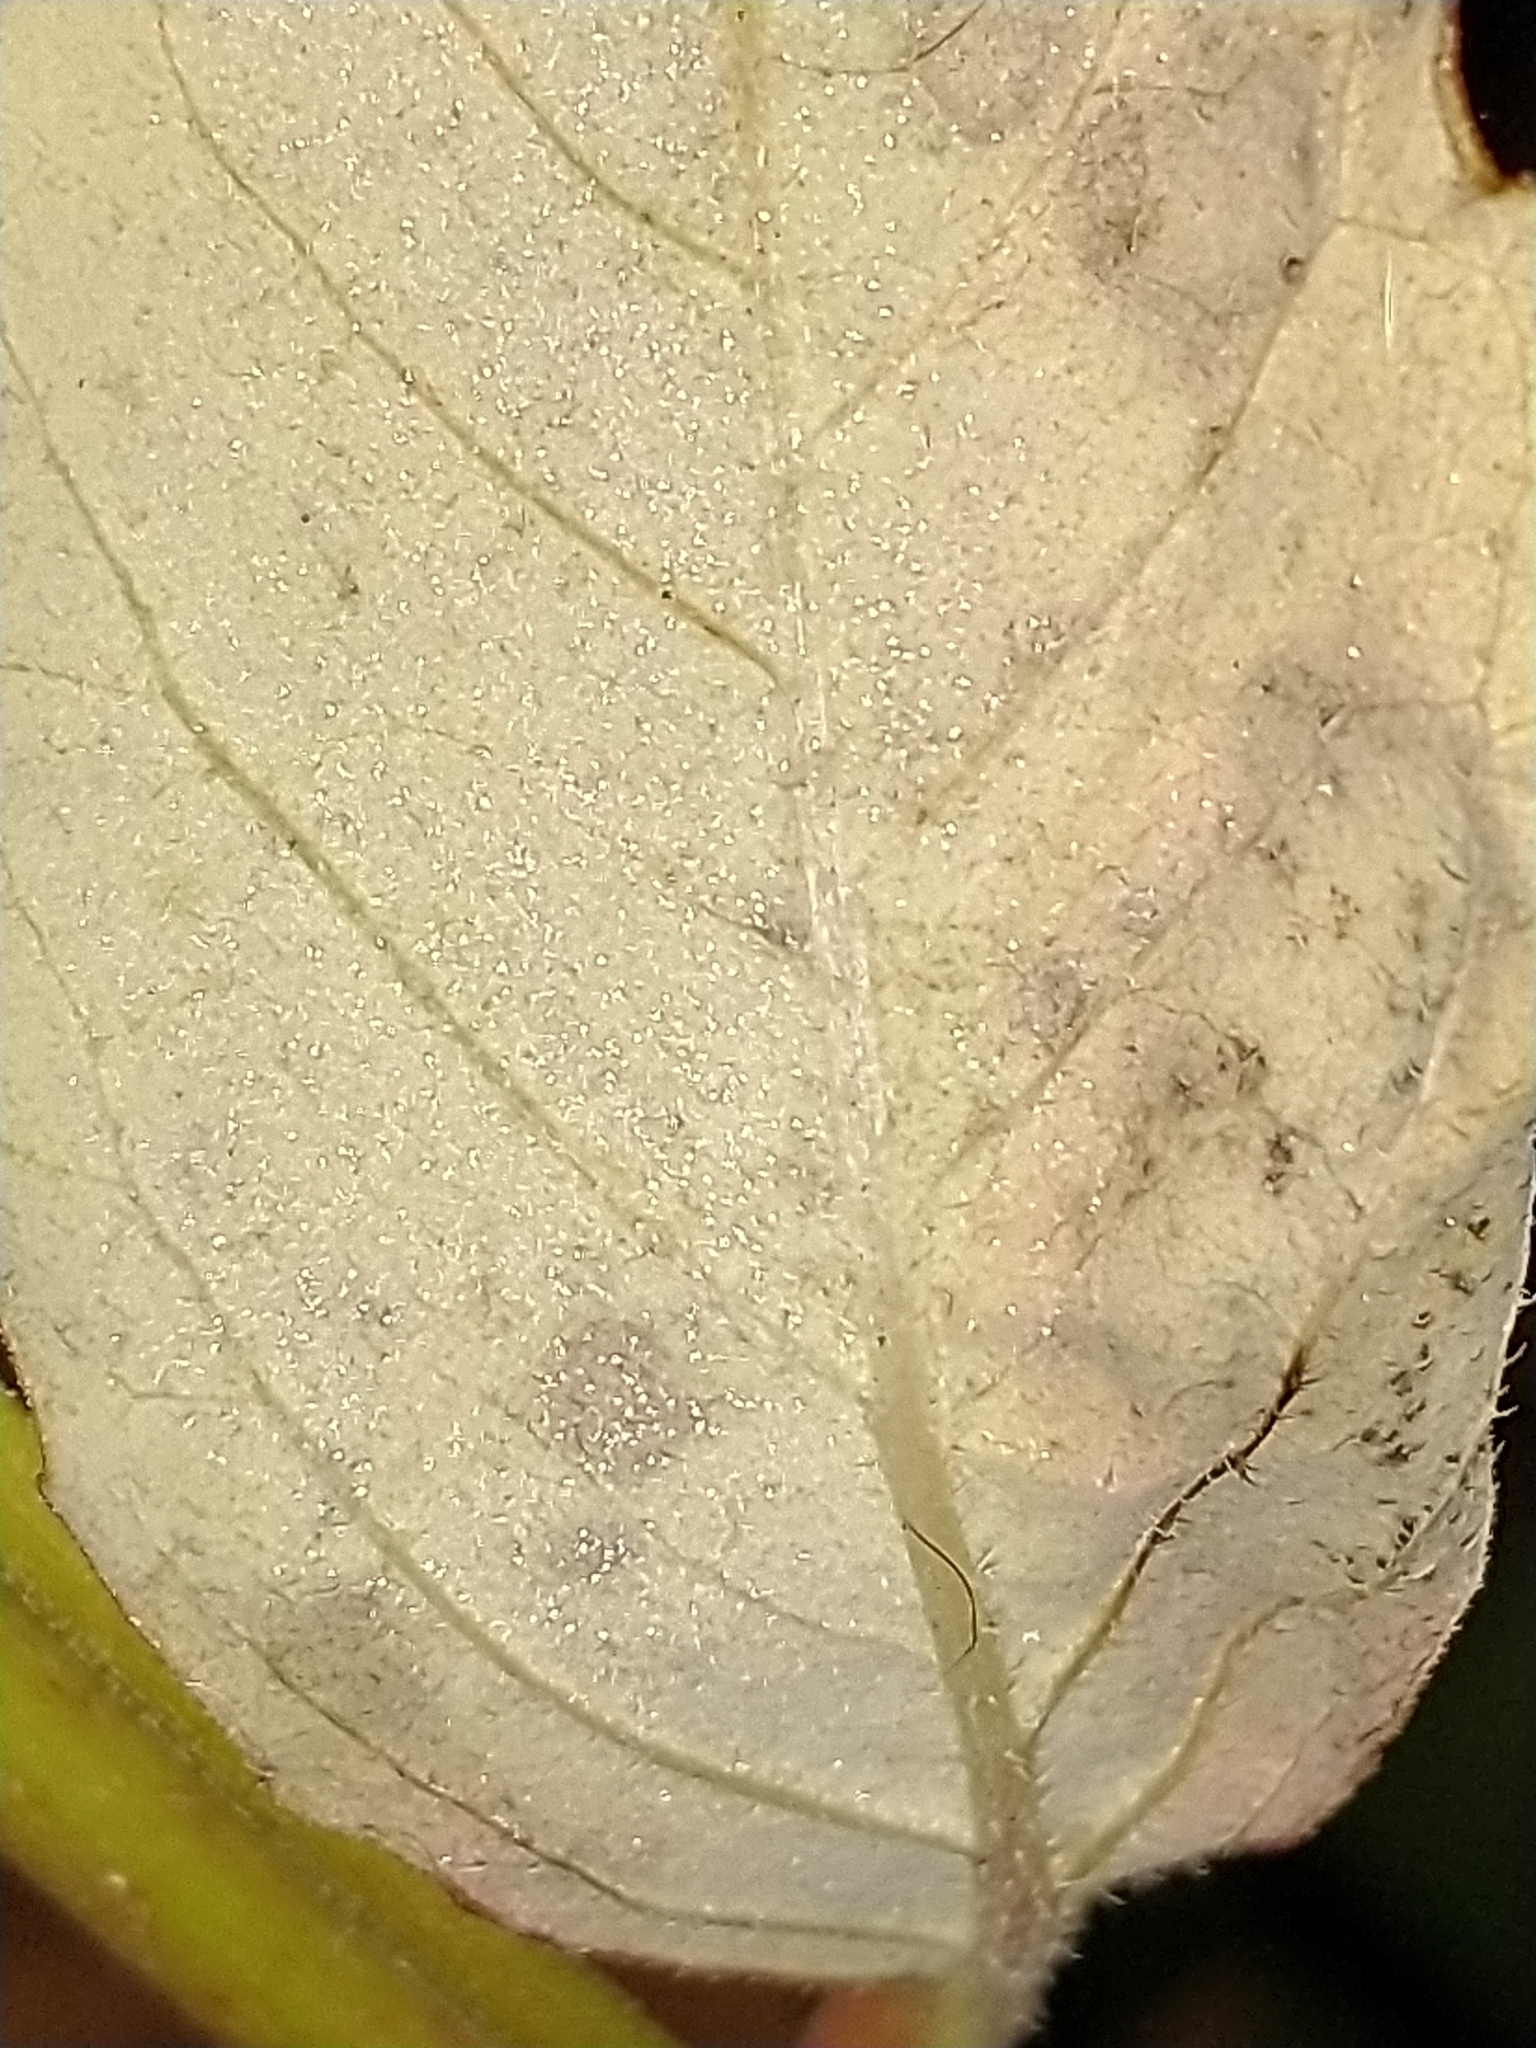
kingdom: Plantae
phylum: Tracheophyta
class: Magnoliopsida
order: Malpighiales
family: Euphorbiaceae
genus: Euphorbia
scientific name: Euphorbia davidii
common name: David's spurge
